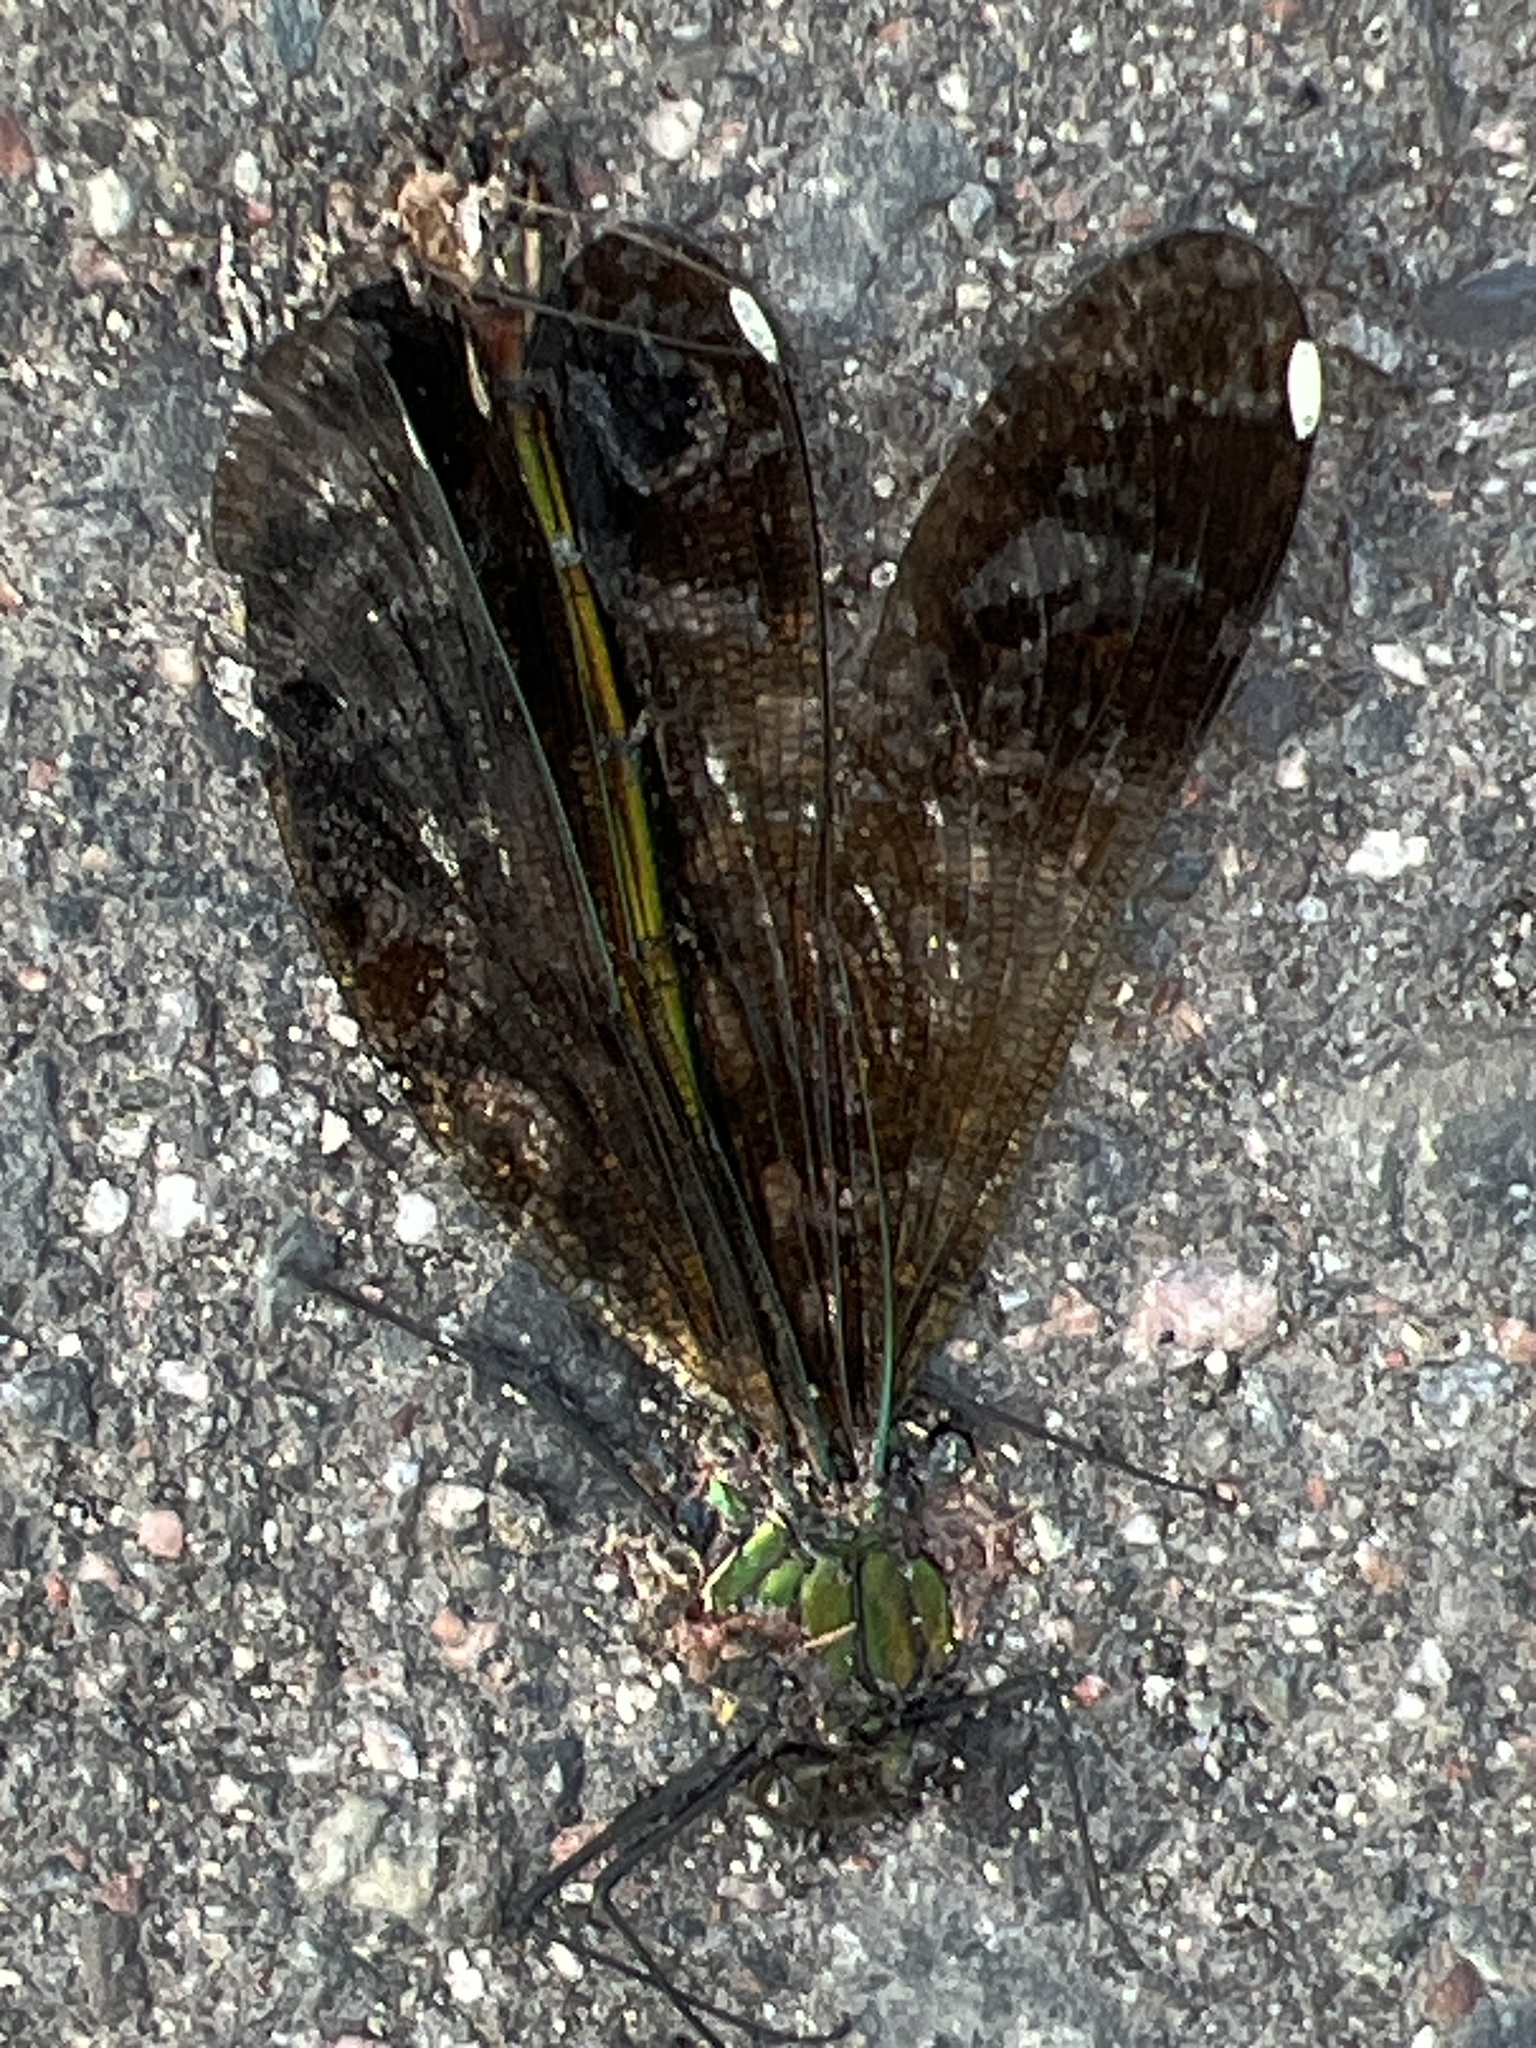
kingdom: Animalia
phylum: Arthropoda
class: Insecta
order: Odonata
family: Calopterygidae
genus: Calopteryx
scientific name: Calopteryx aequabilis
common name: River jewelwing
